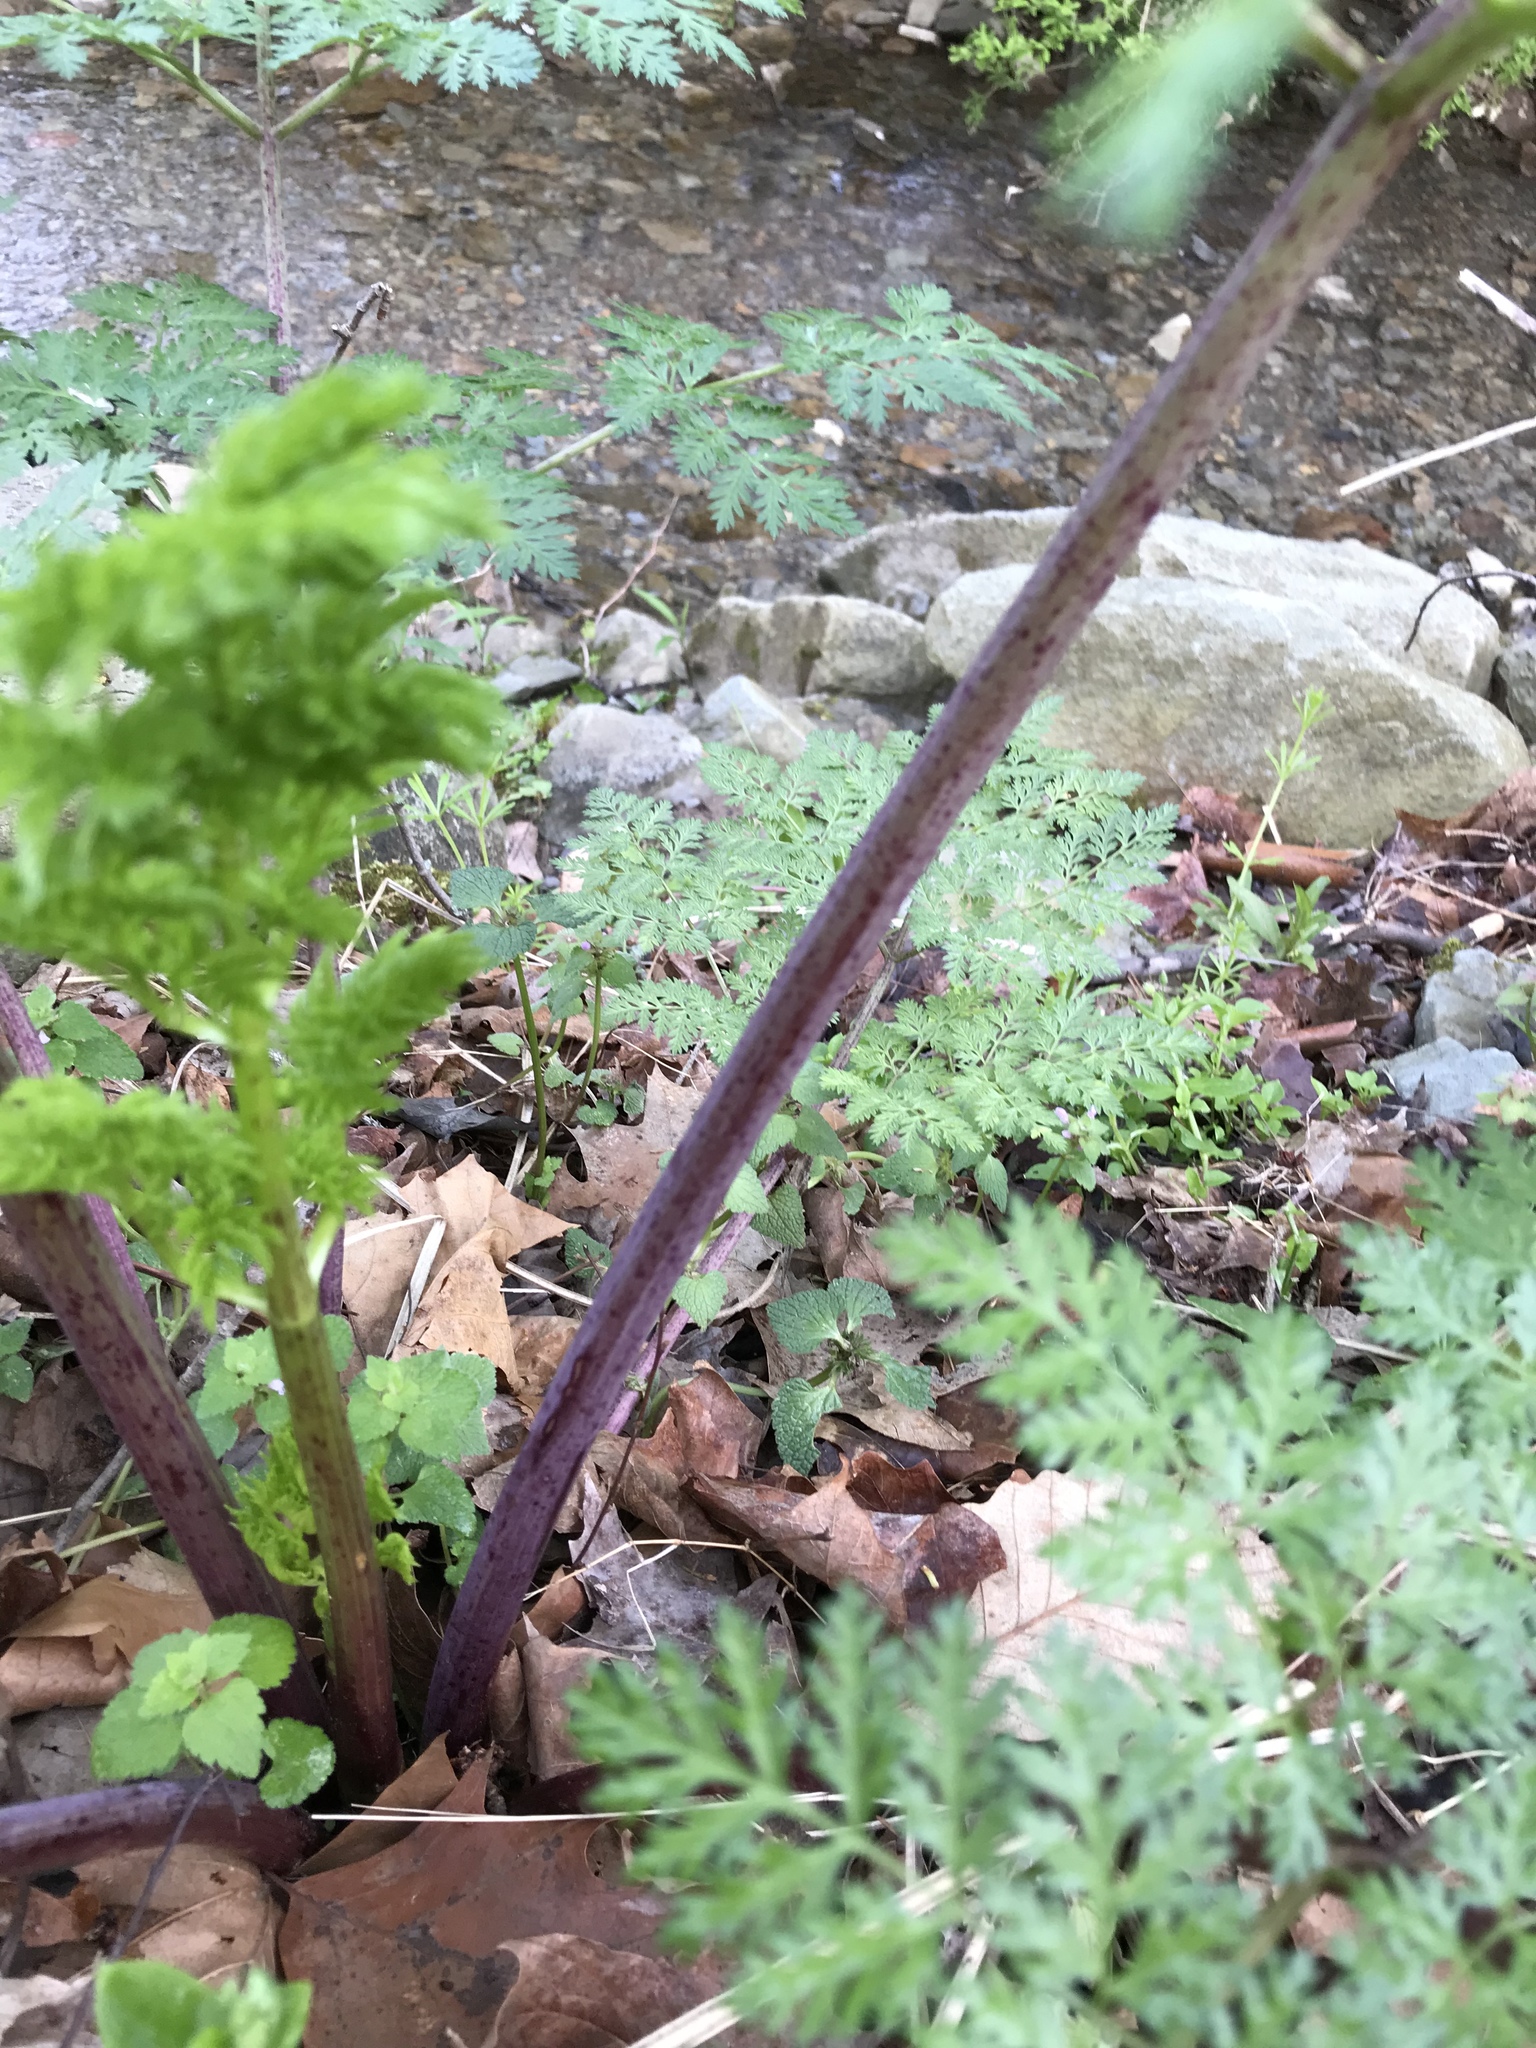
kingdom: Plantae
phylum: Tracheophyta
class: Magnoliopsida
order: Apiales
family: Apiaceae
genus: Conium
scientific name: Conium maculatum
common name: Hemlock
